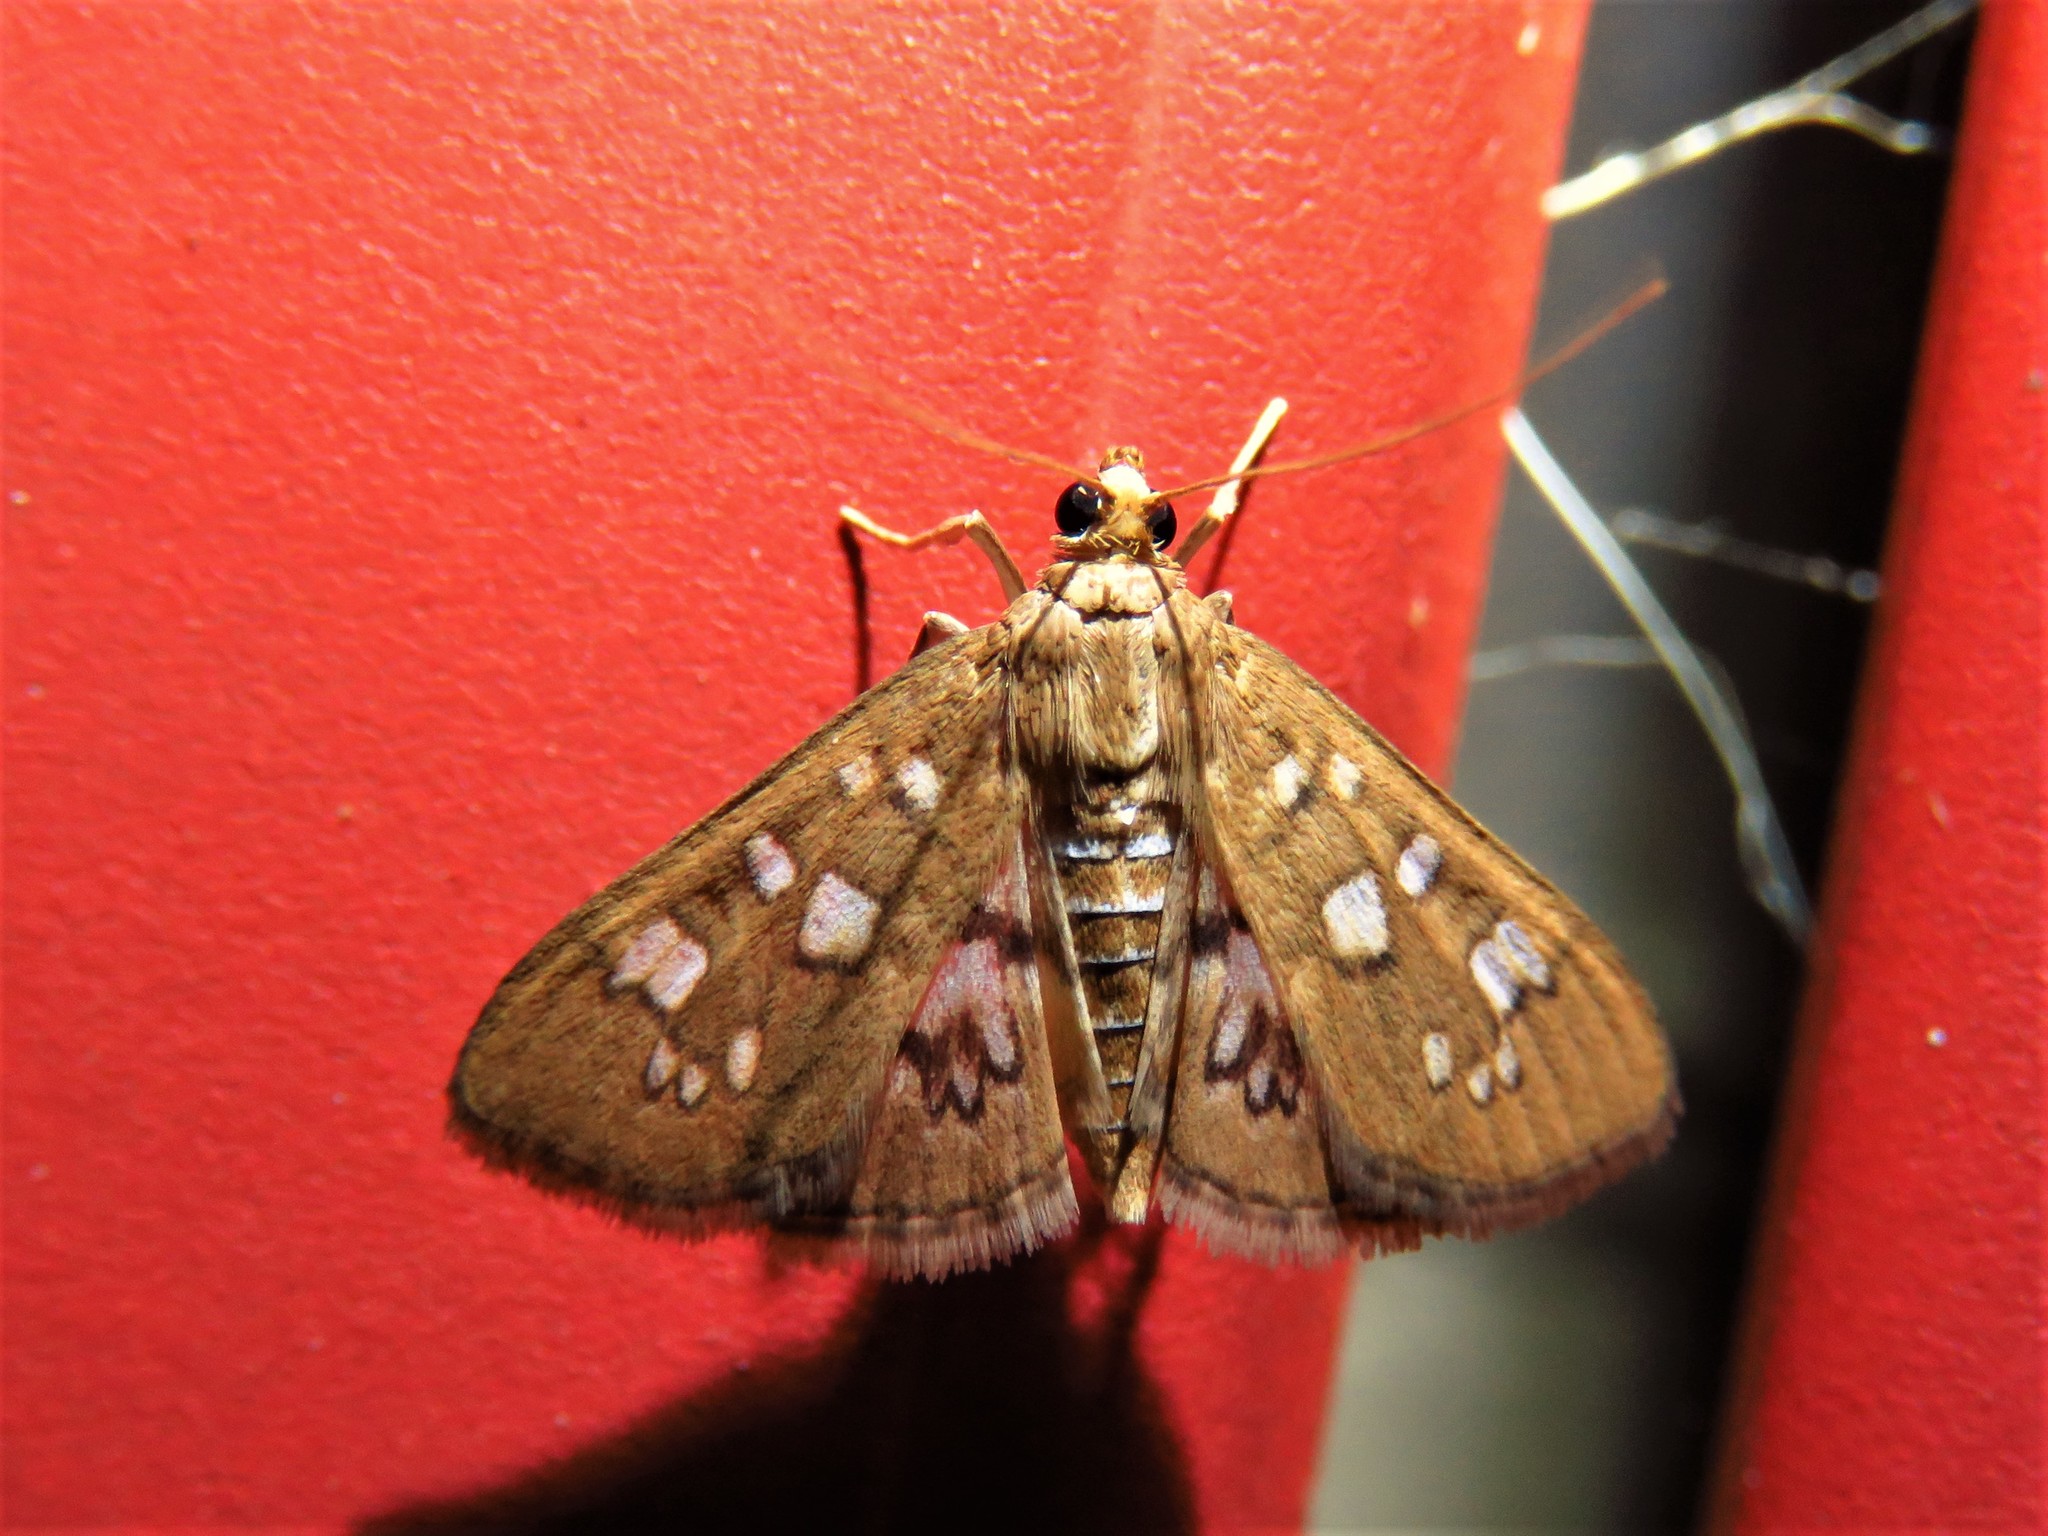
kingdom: Animalia
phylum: Arthropoda
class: Insecta
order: Lepidoptera
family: Crambidae
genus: Samea
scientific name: Samea baccatalis
